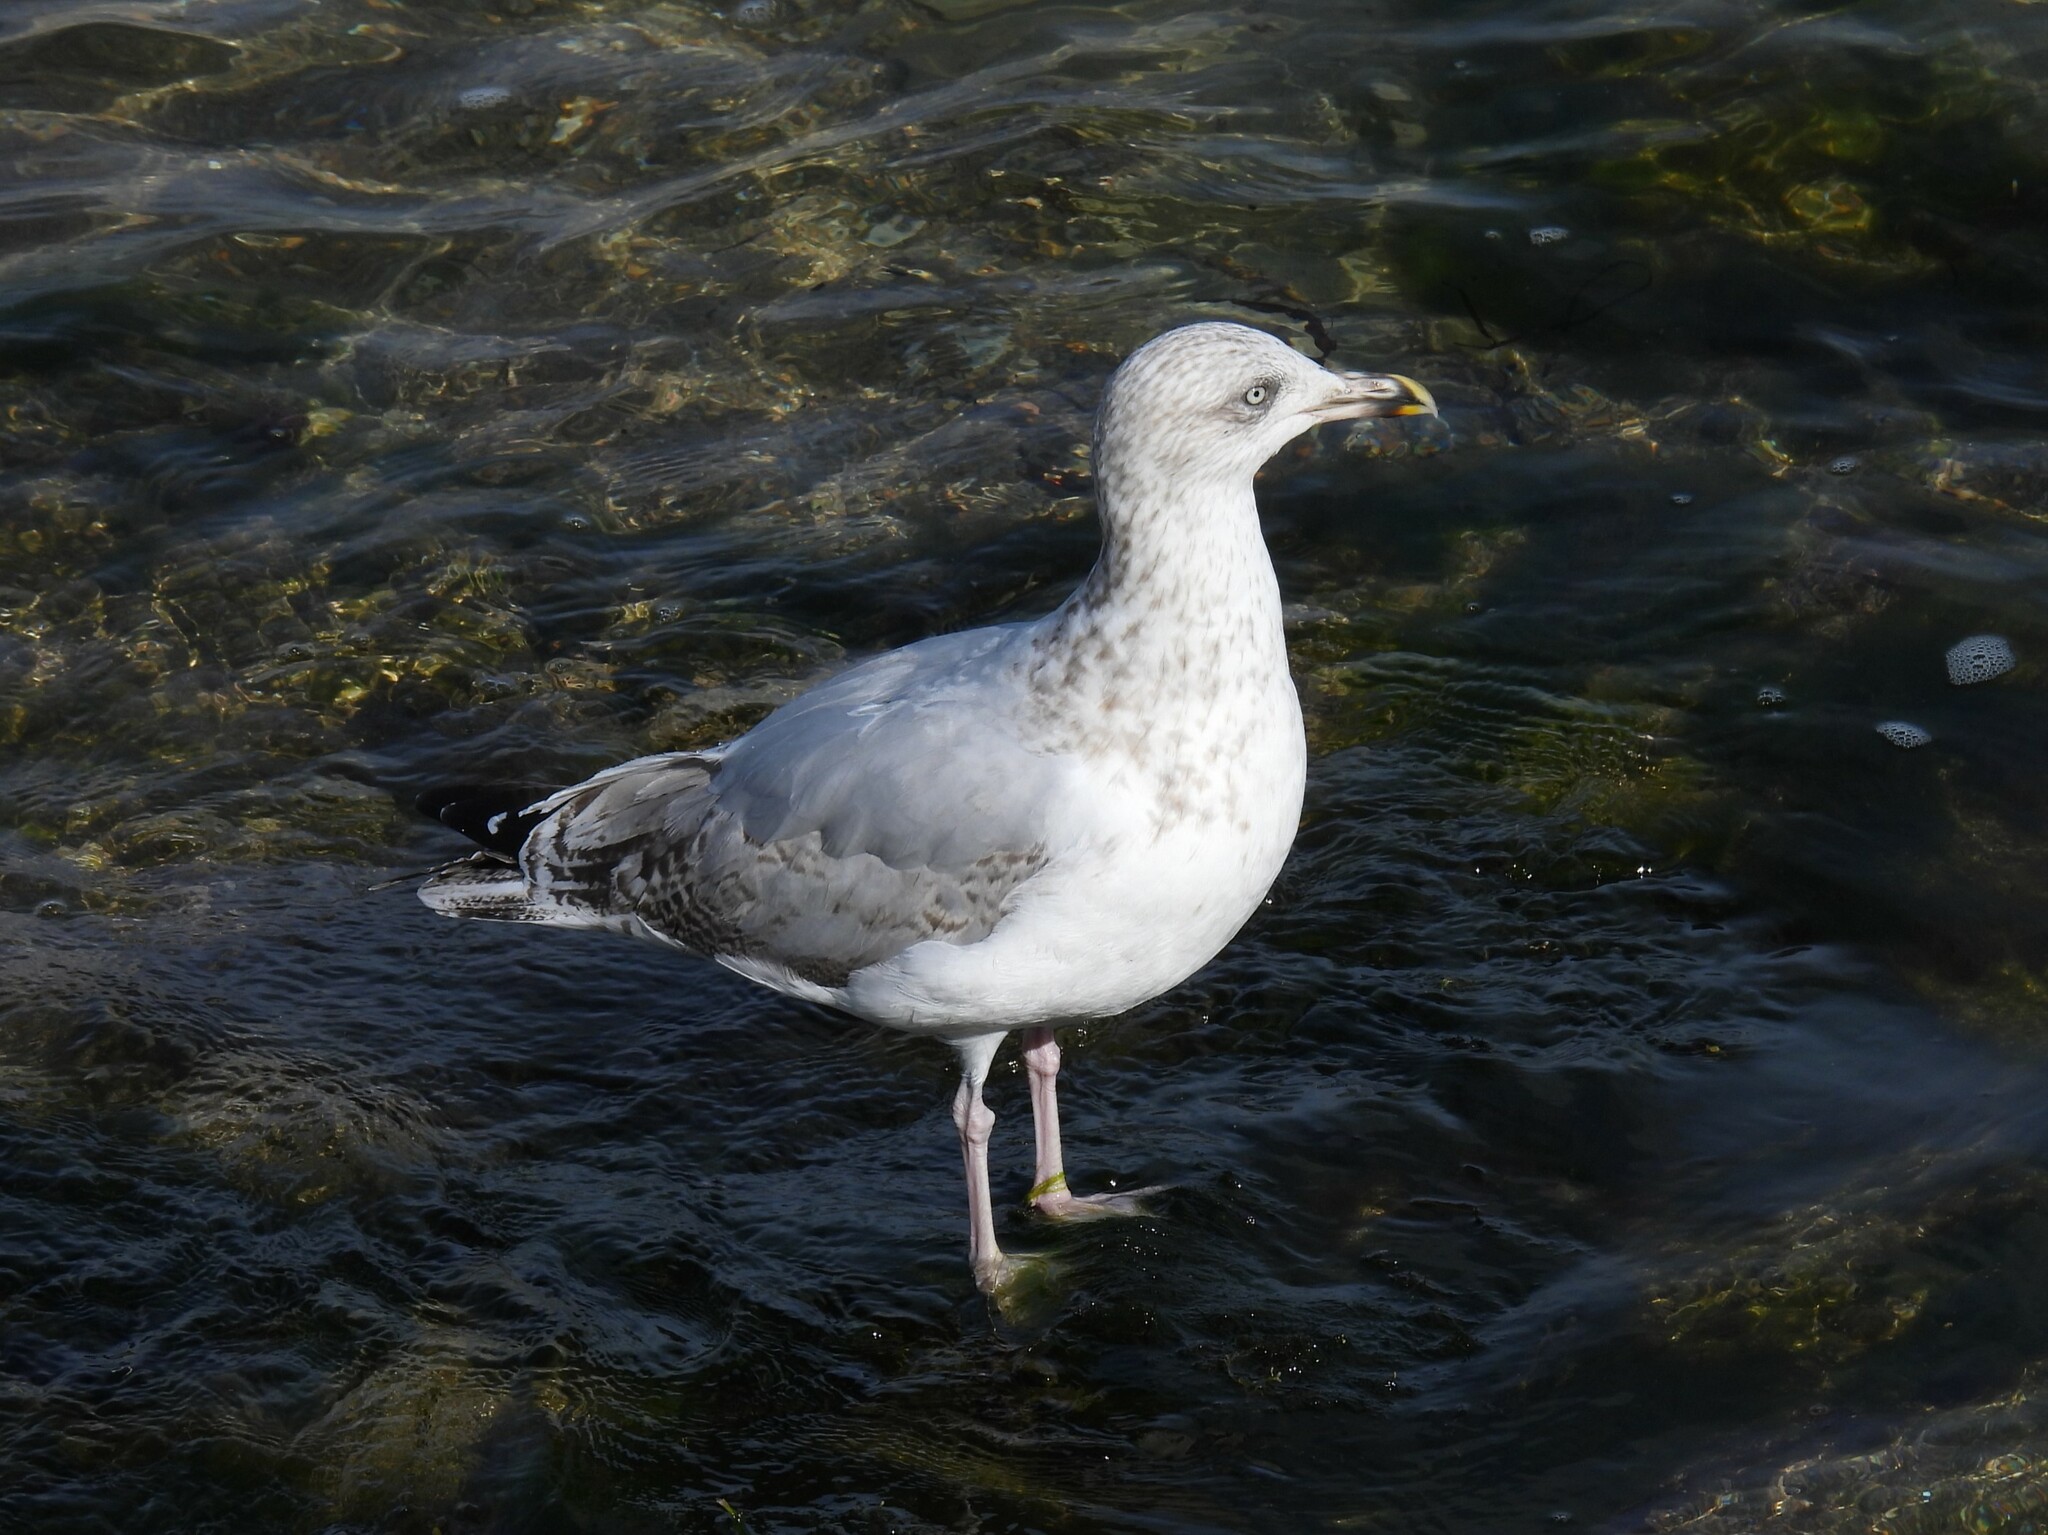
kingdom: Animalia
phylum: Chordata
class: Aves
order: Charadriiformes
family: Laridae
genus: Larus
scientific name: Larus argentatus
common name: Herring gull
